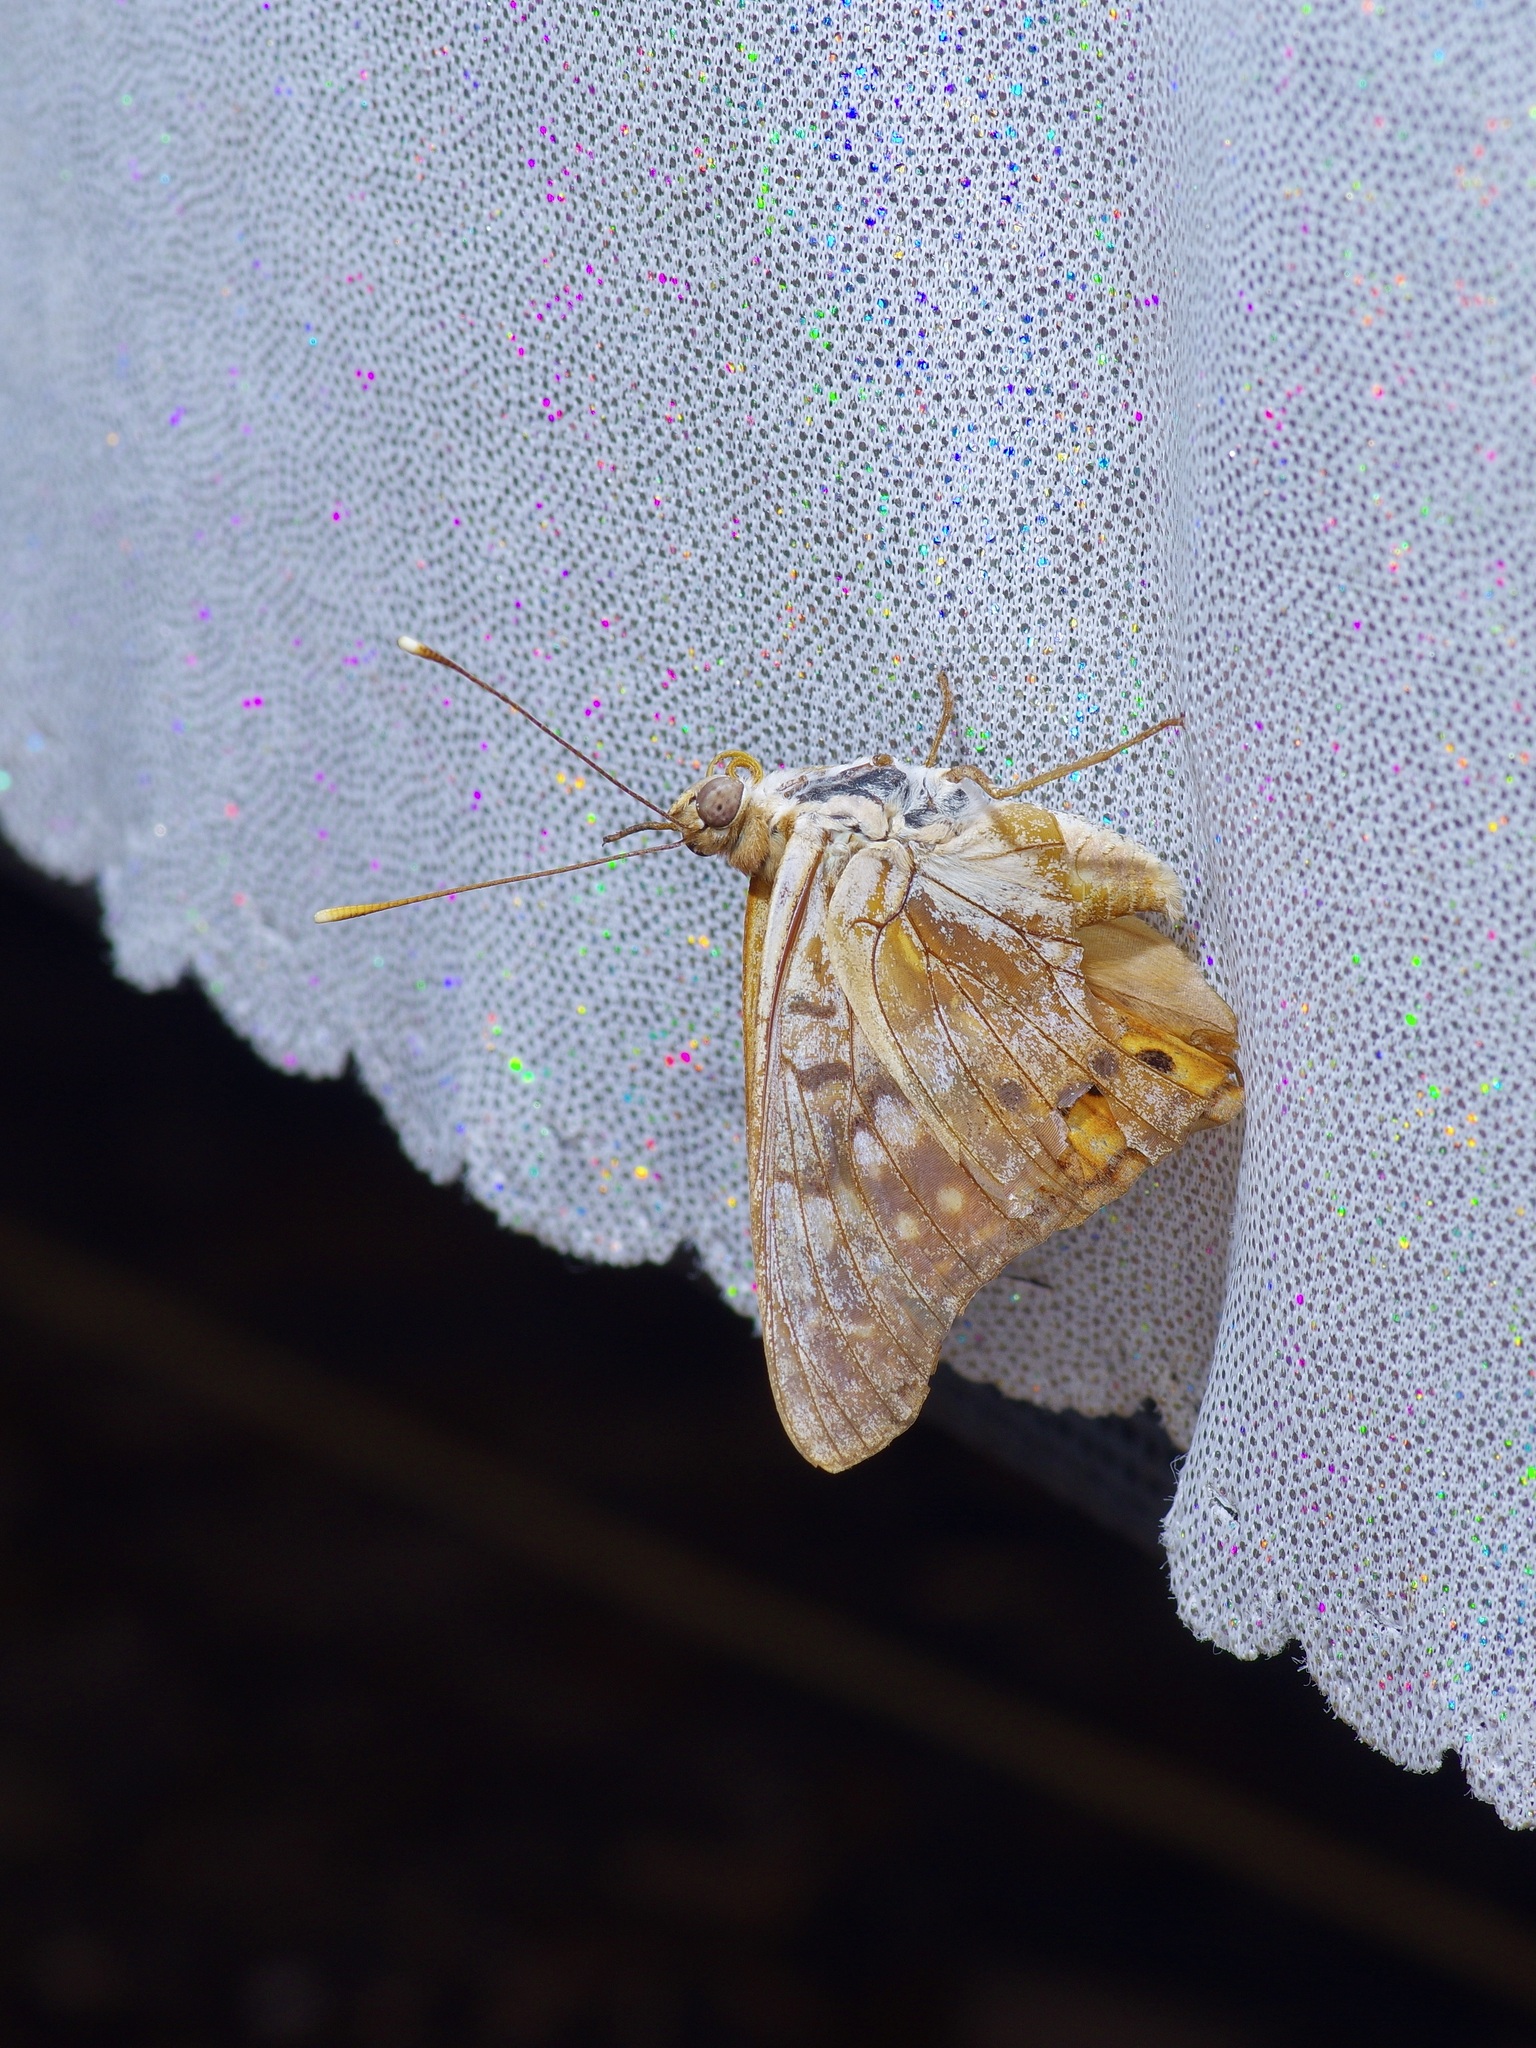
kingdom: Animalia
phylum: Arthropoda
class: Insecta
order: Lepidoptera
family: Nymphalidae
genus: Asterocampa
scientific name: Asterocampa clyton
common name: Tawny emperor
